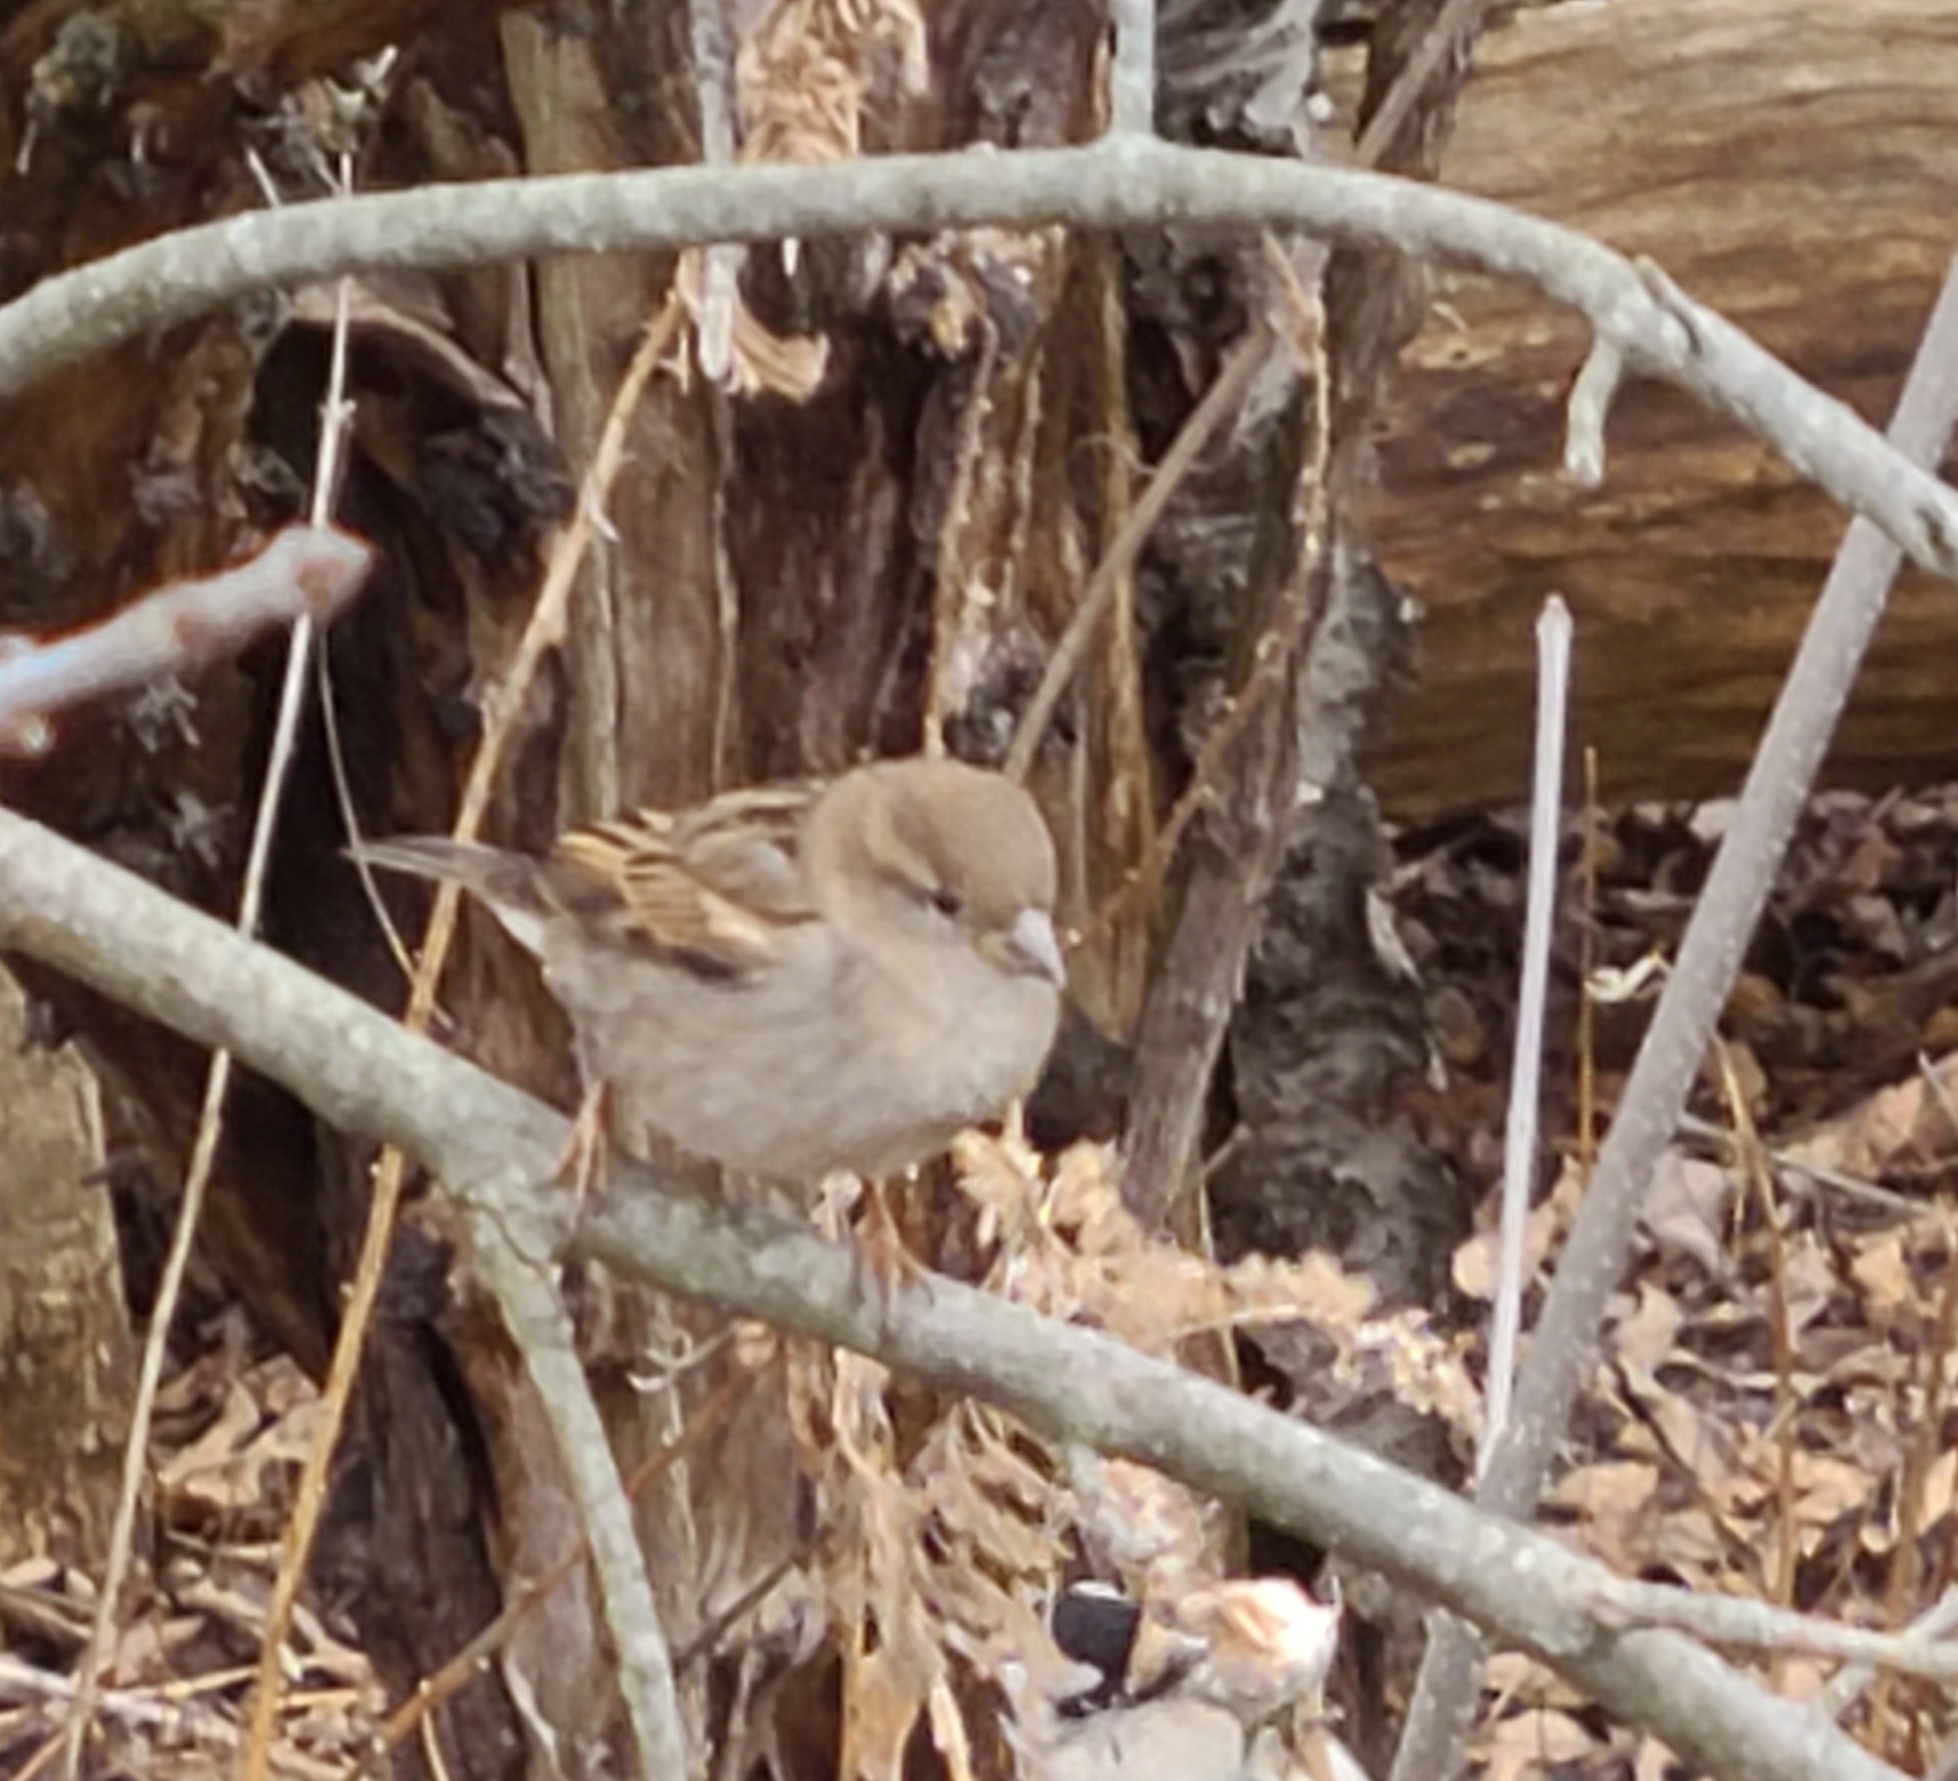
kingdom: Animalia
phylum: Chordata
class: Aves
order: Passeriformes
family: Passeridae
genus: Passer
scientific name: Passer domesticus
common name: House sparrow
